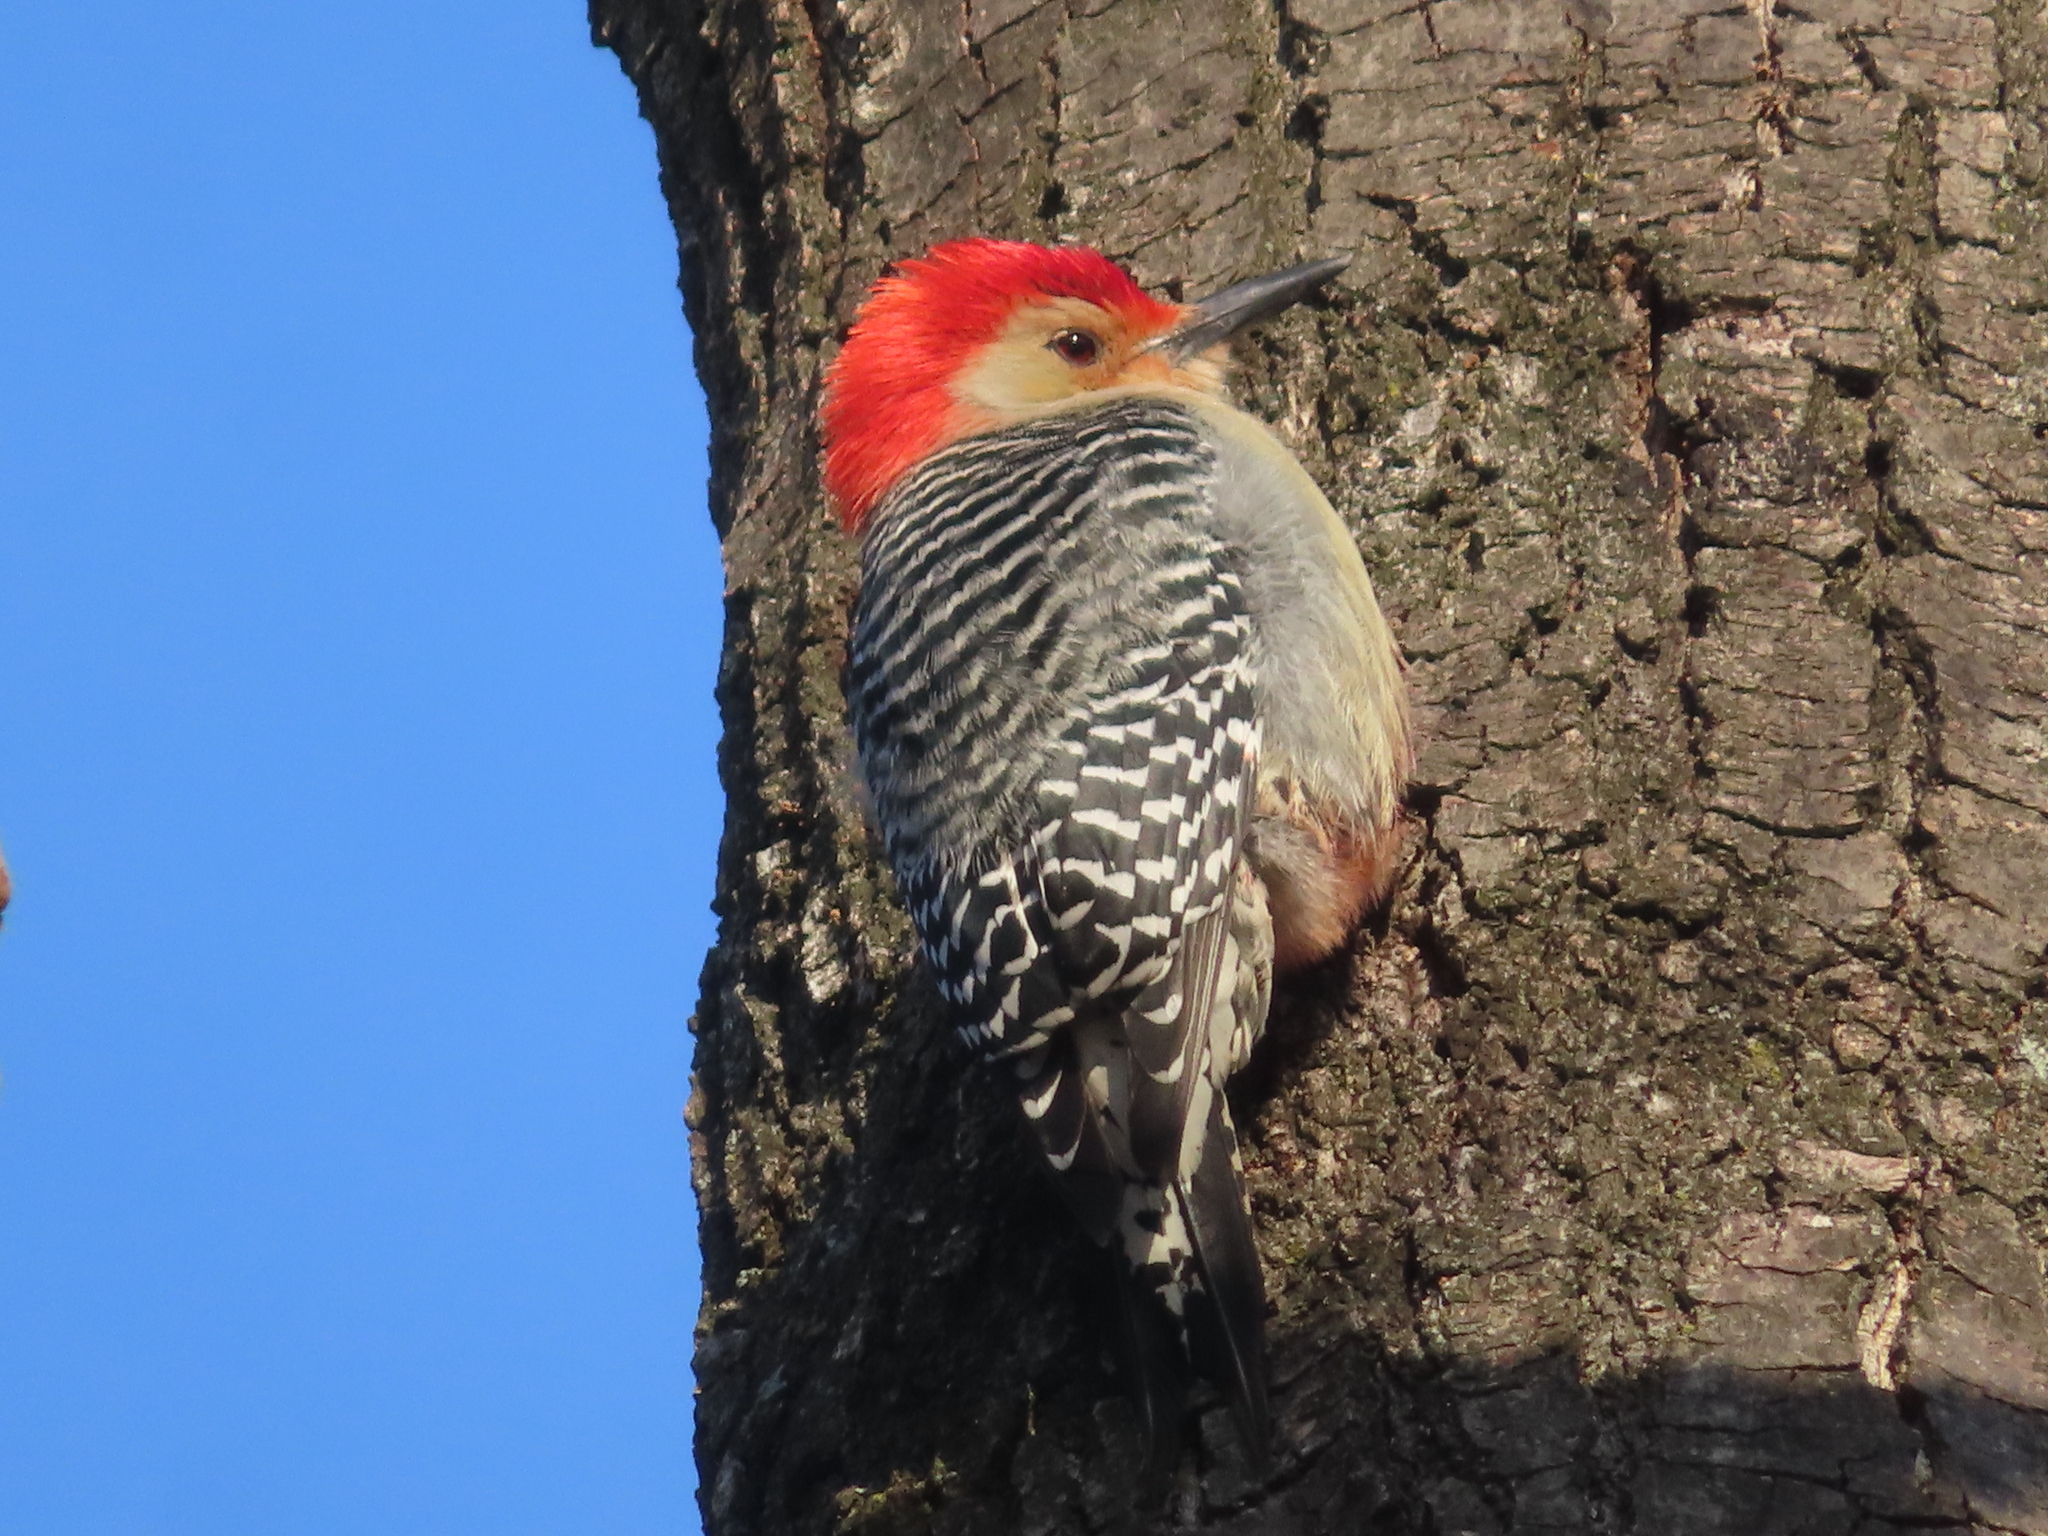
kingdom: Animalia
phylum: Chordata
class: Aves
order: Piciformes
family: Picidae
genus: Melanerpes
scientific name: Melanerpes carolinus
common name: Red-bellied woodpecker
